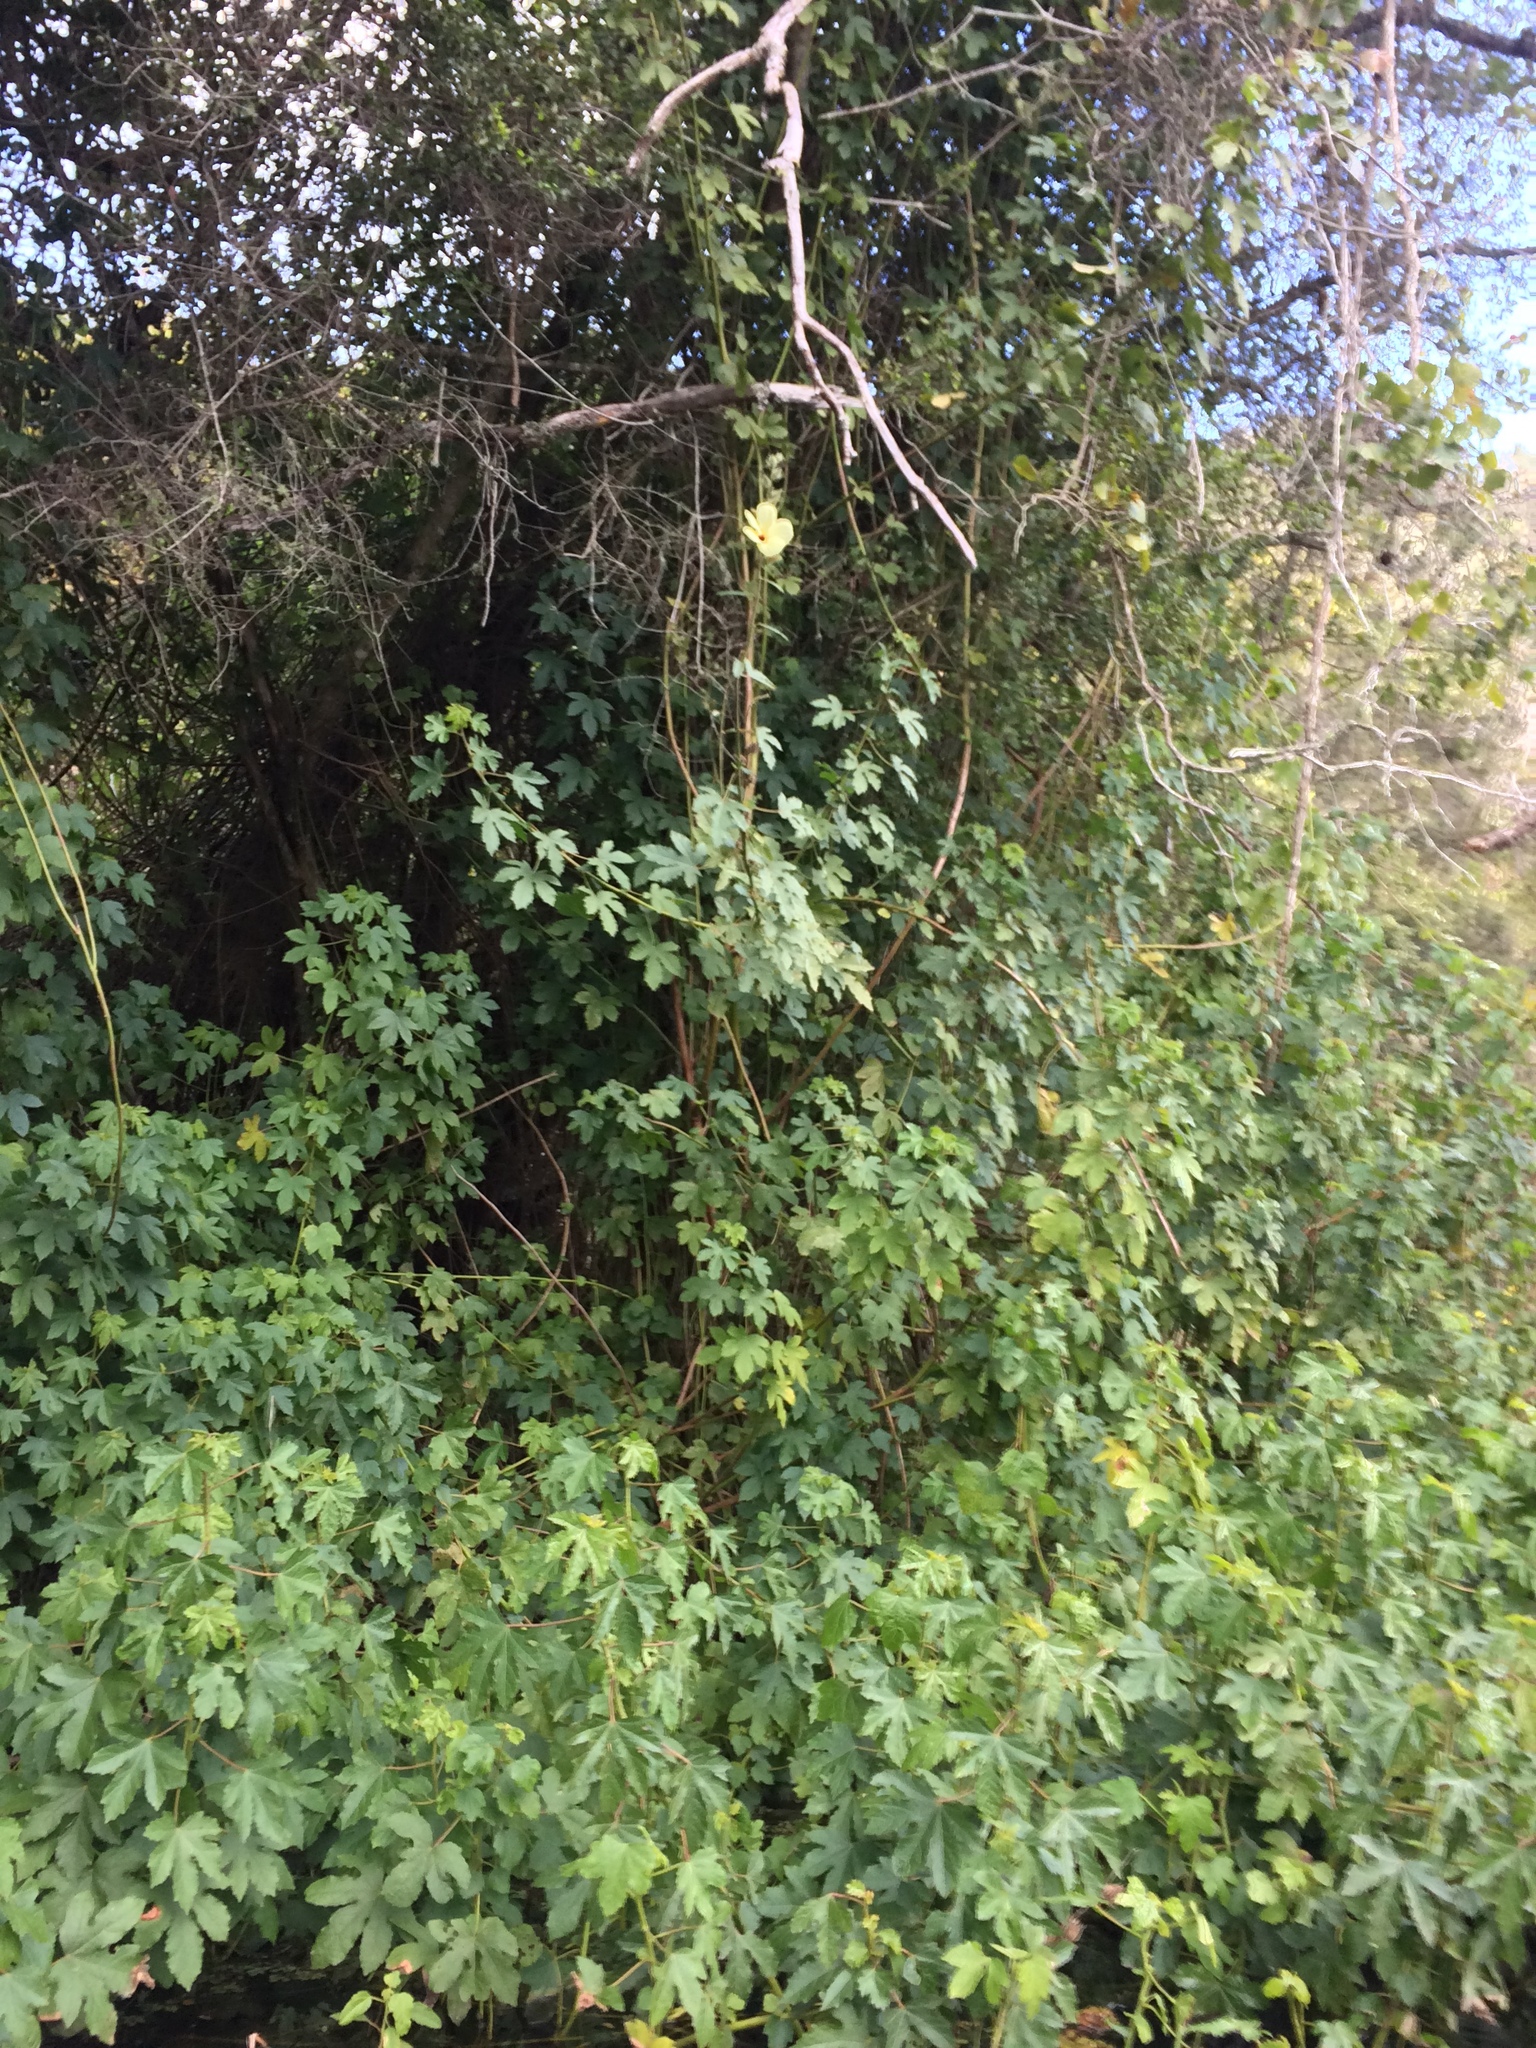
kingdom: Plantae
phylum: Tracheophyta
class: Magnoliopsida
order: Malvales
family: Malvaceae
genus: Hibiscus
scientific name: Hibiscus diversifolius
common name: Cape hibiscus
